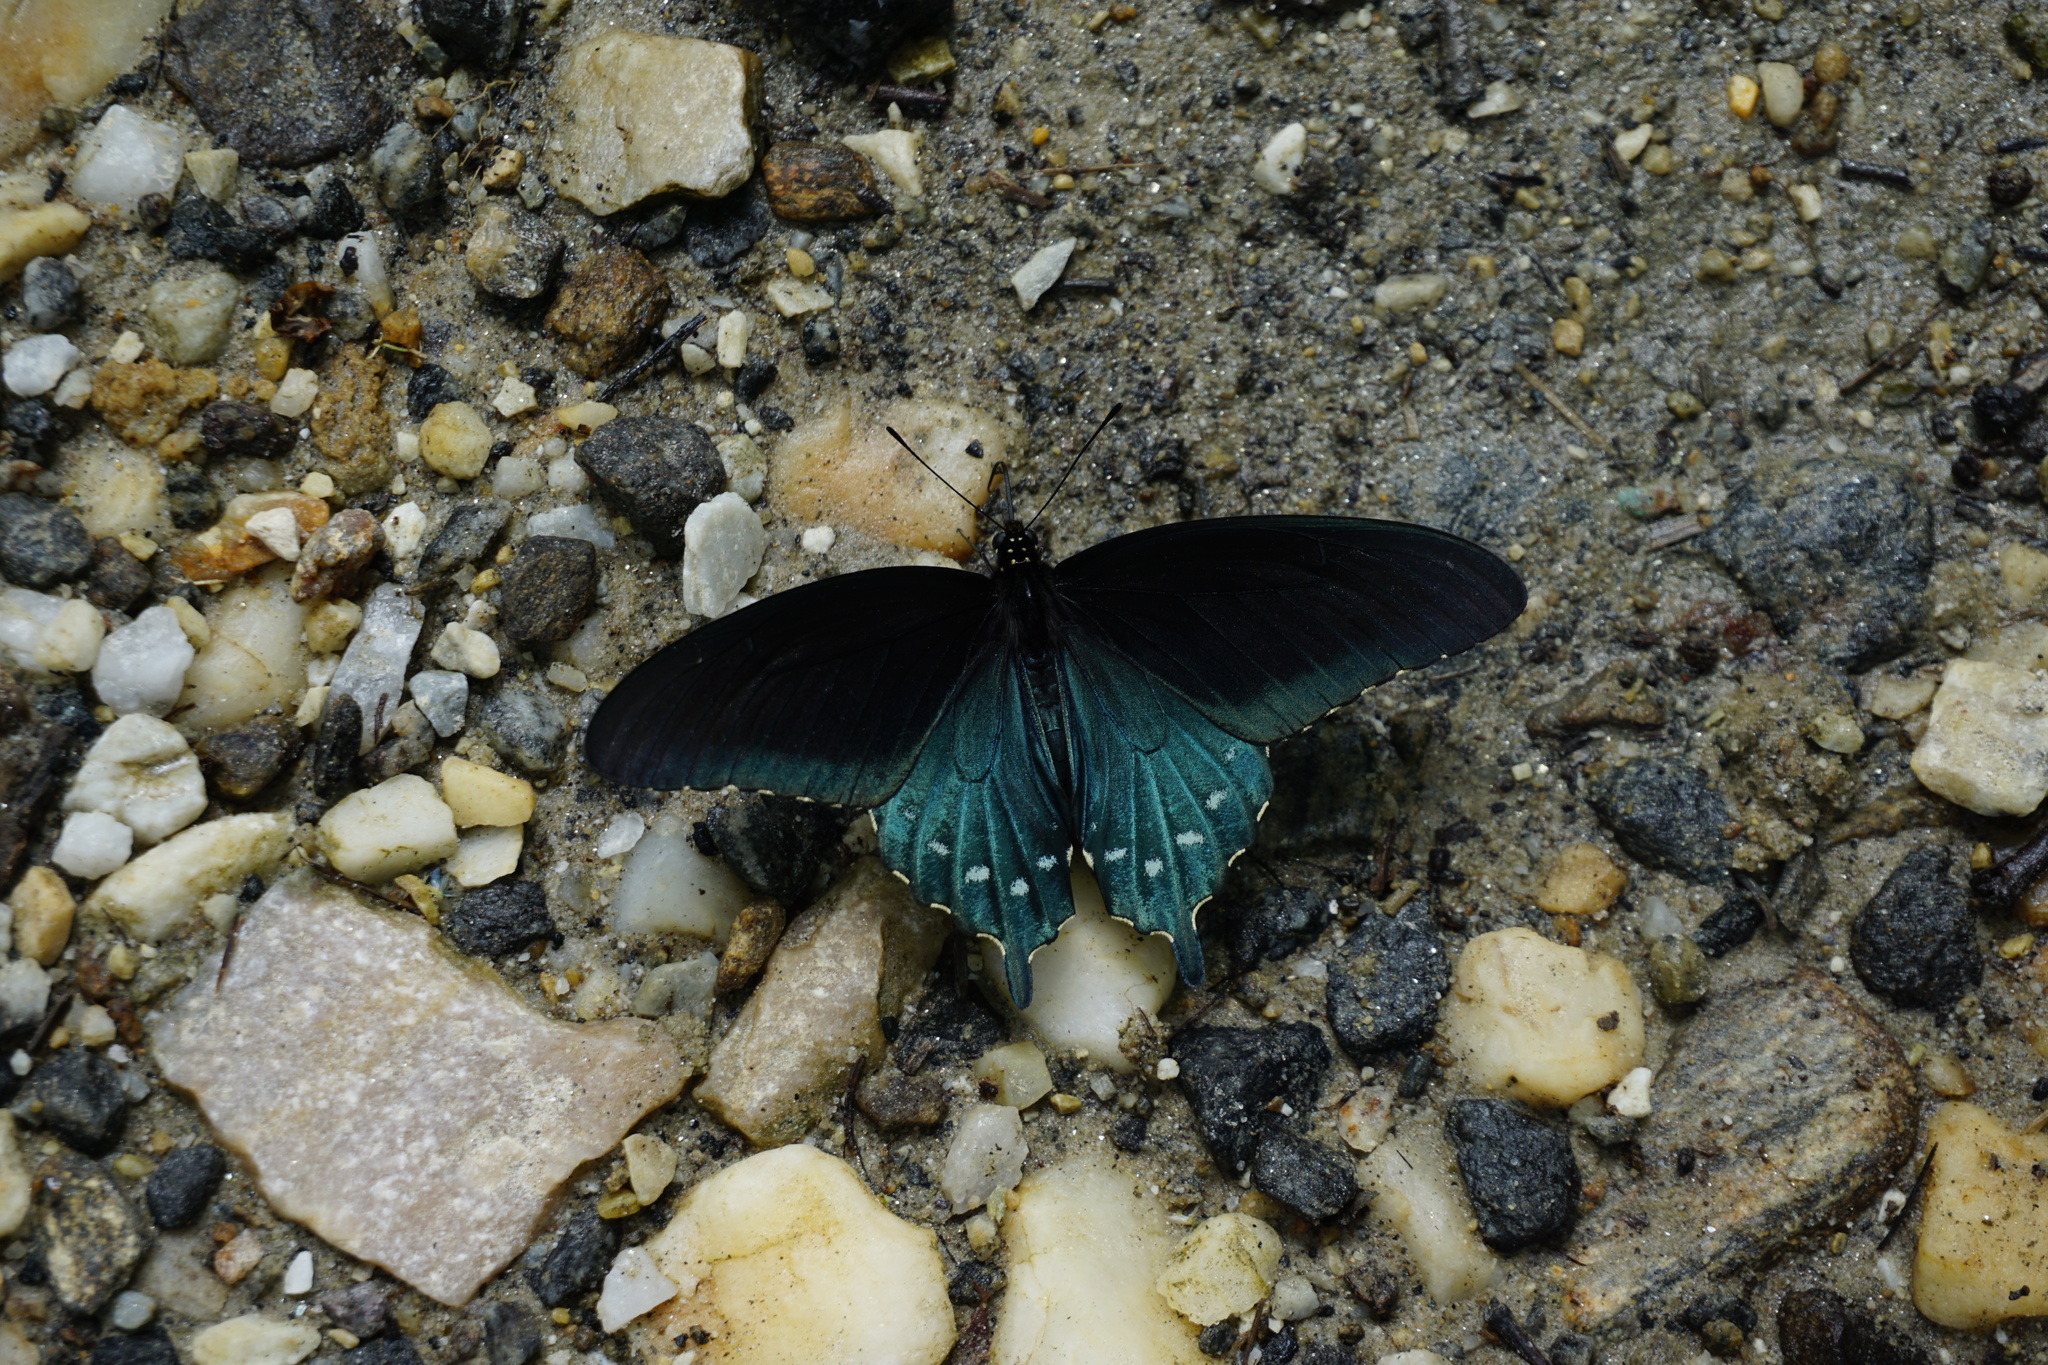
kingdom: Animalia
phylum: Arthropoda
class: Insecta
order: Lepidoptera
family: Papilionidae
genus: Battus
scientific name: Battus philenor
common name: Pipevine swallowtail
